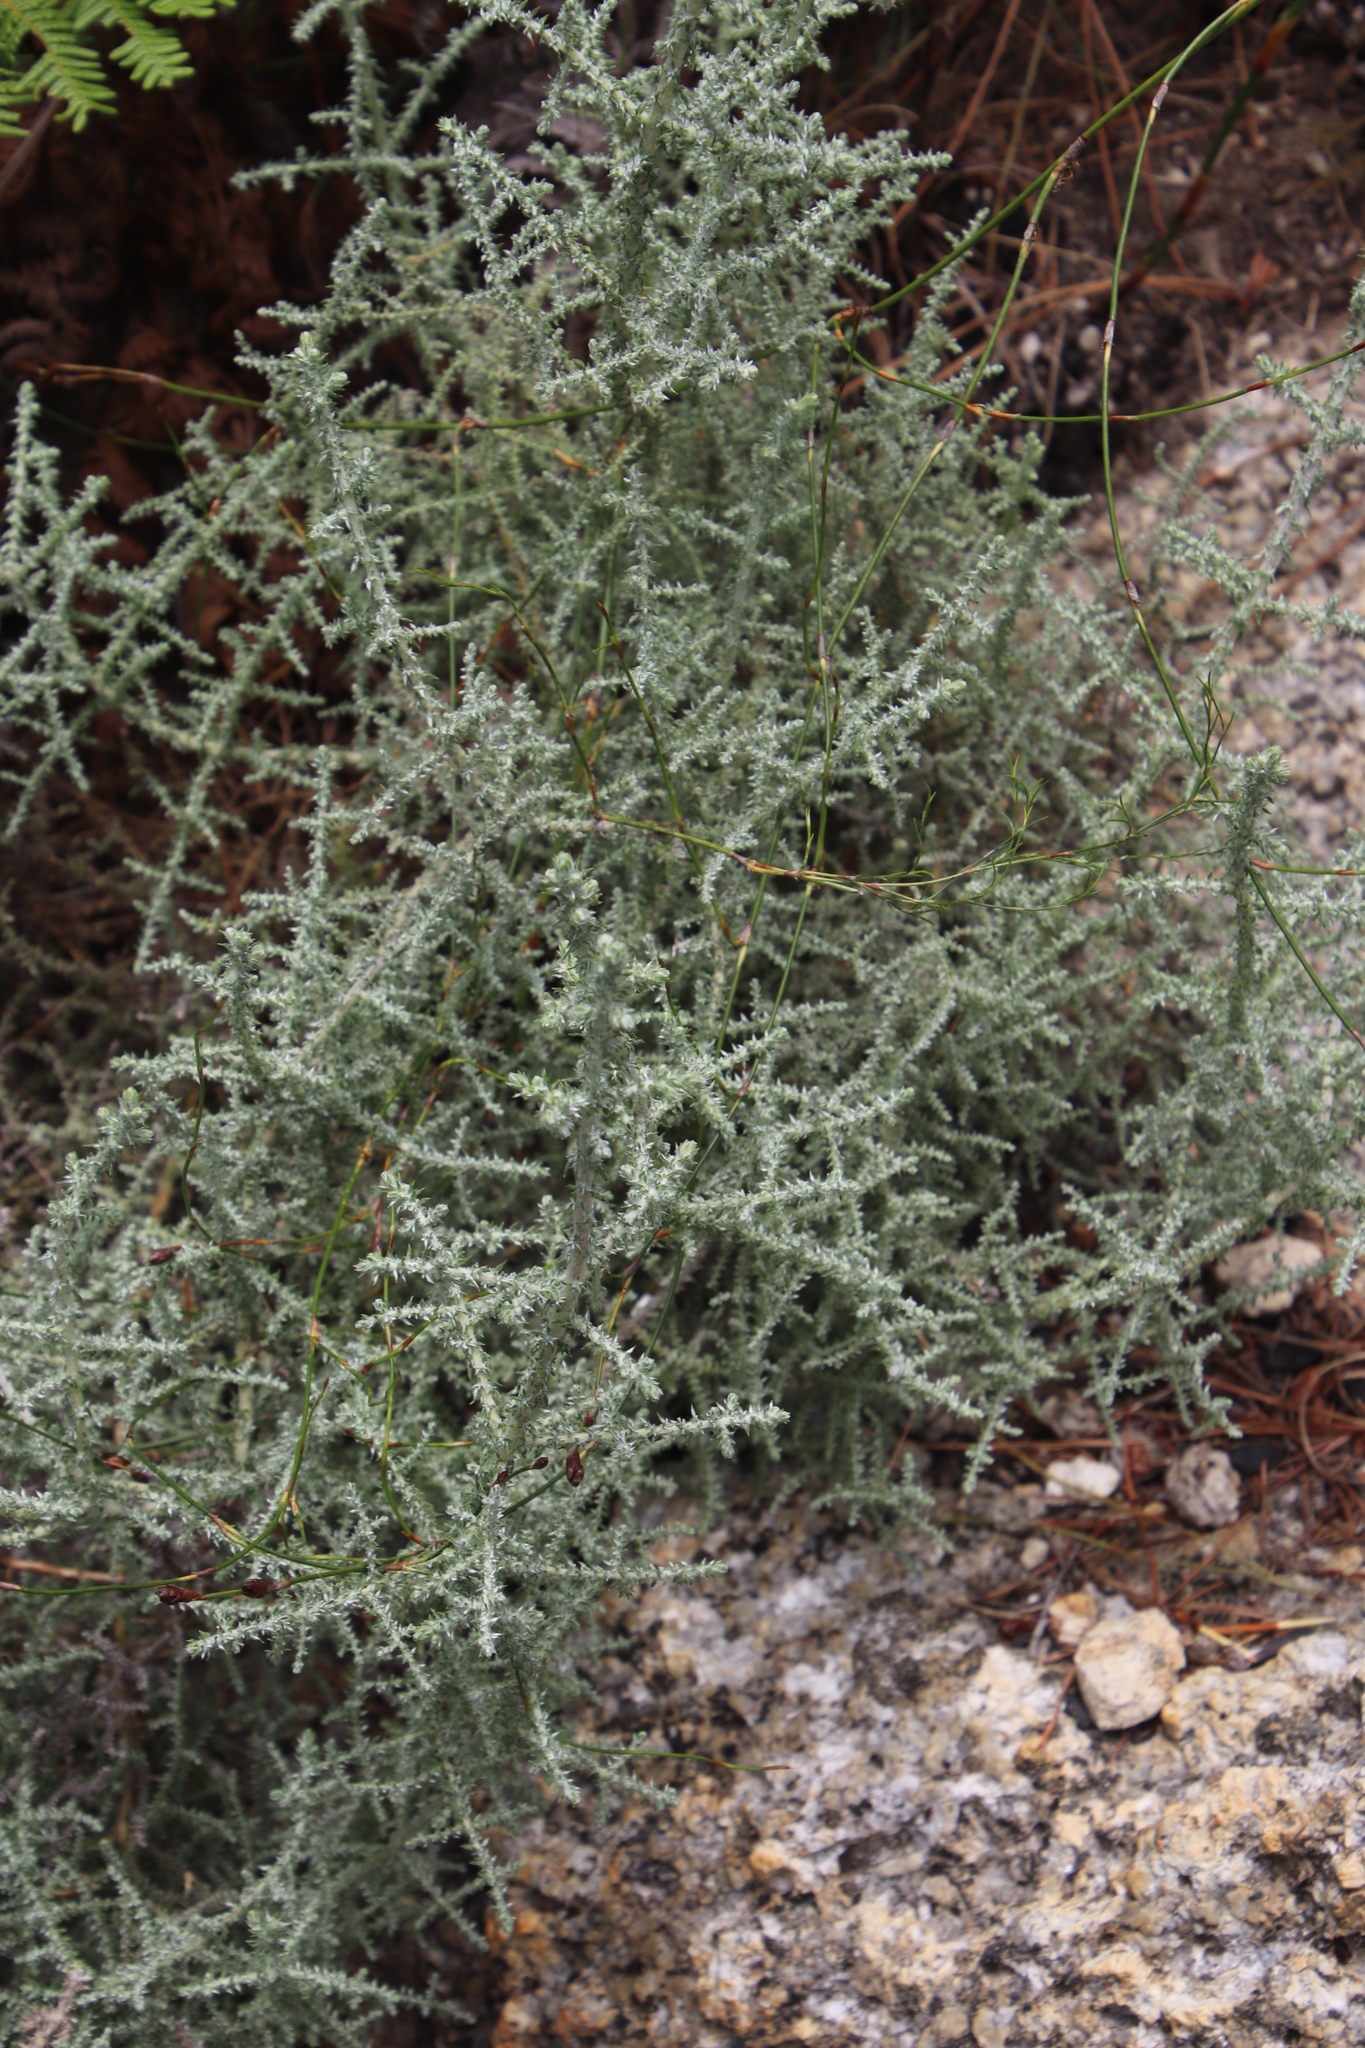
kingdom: Plantae
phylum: Tracheophyta
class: Magnoliopsida
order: Asterales
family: Asteraceae
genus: Seriphium
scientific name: Seriphium plumosum
